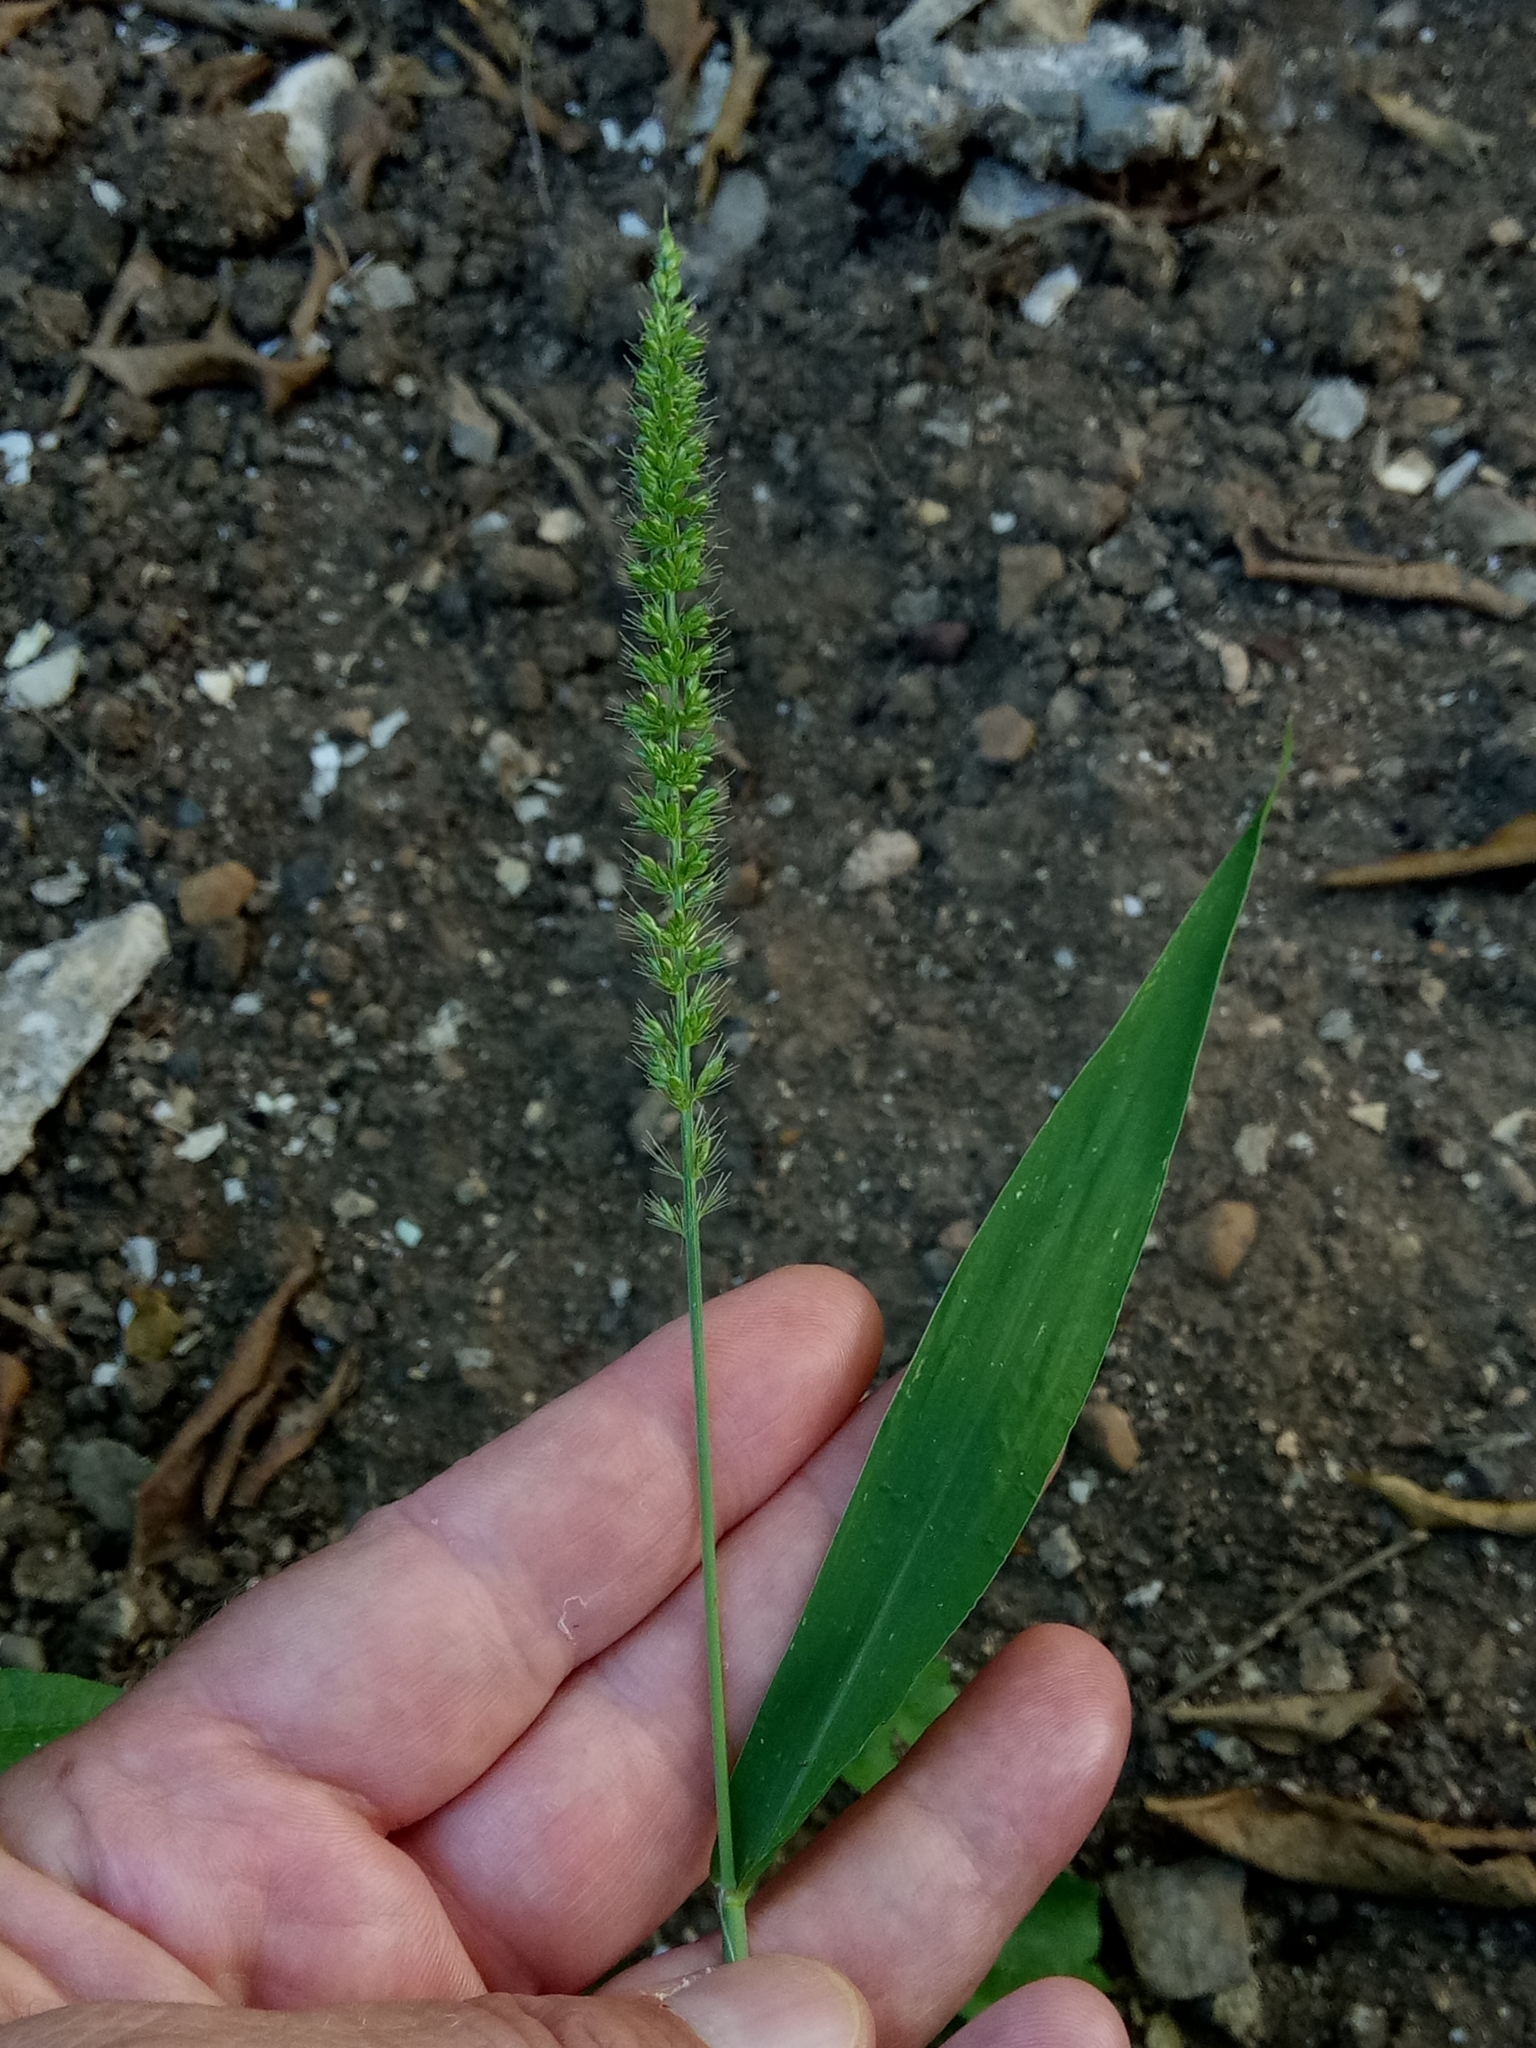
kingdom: Plantae
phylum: Tracheophyta
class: Liliopsida
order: Poales
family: Poaceae
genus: Setaria
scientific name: Setaria verticillata
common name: Hooked bristlegrass
